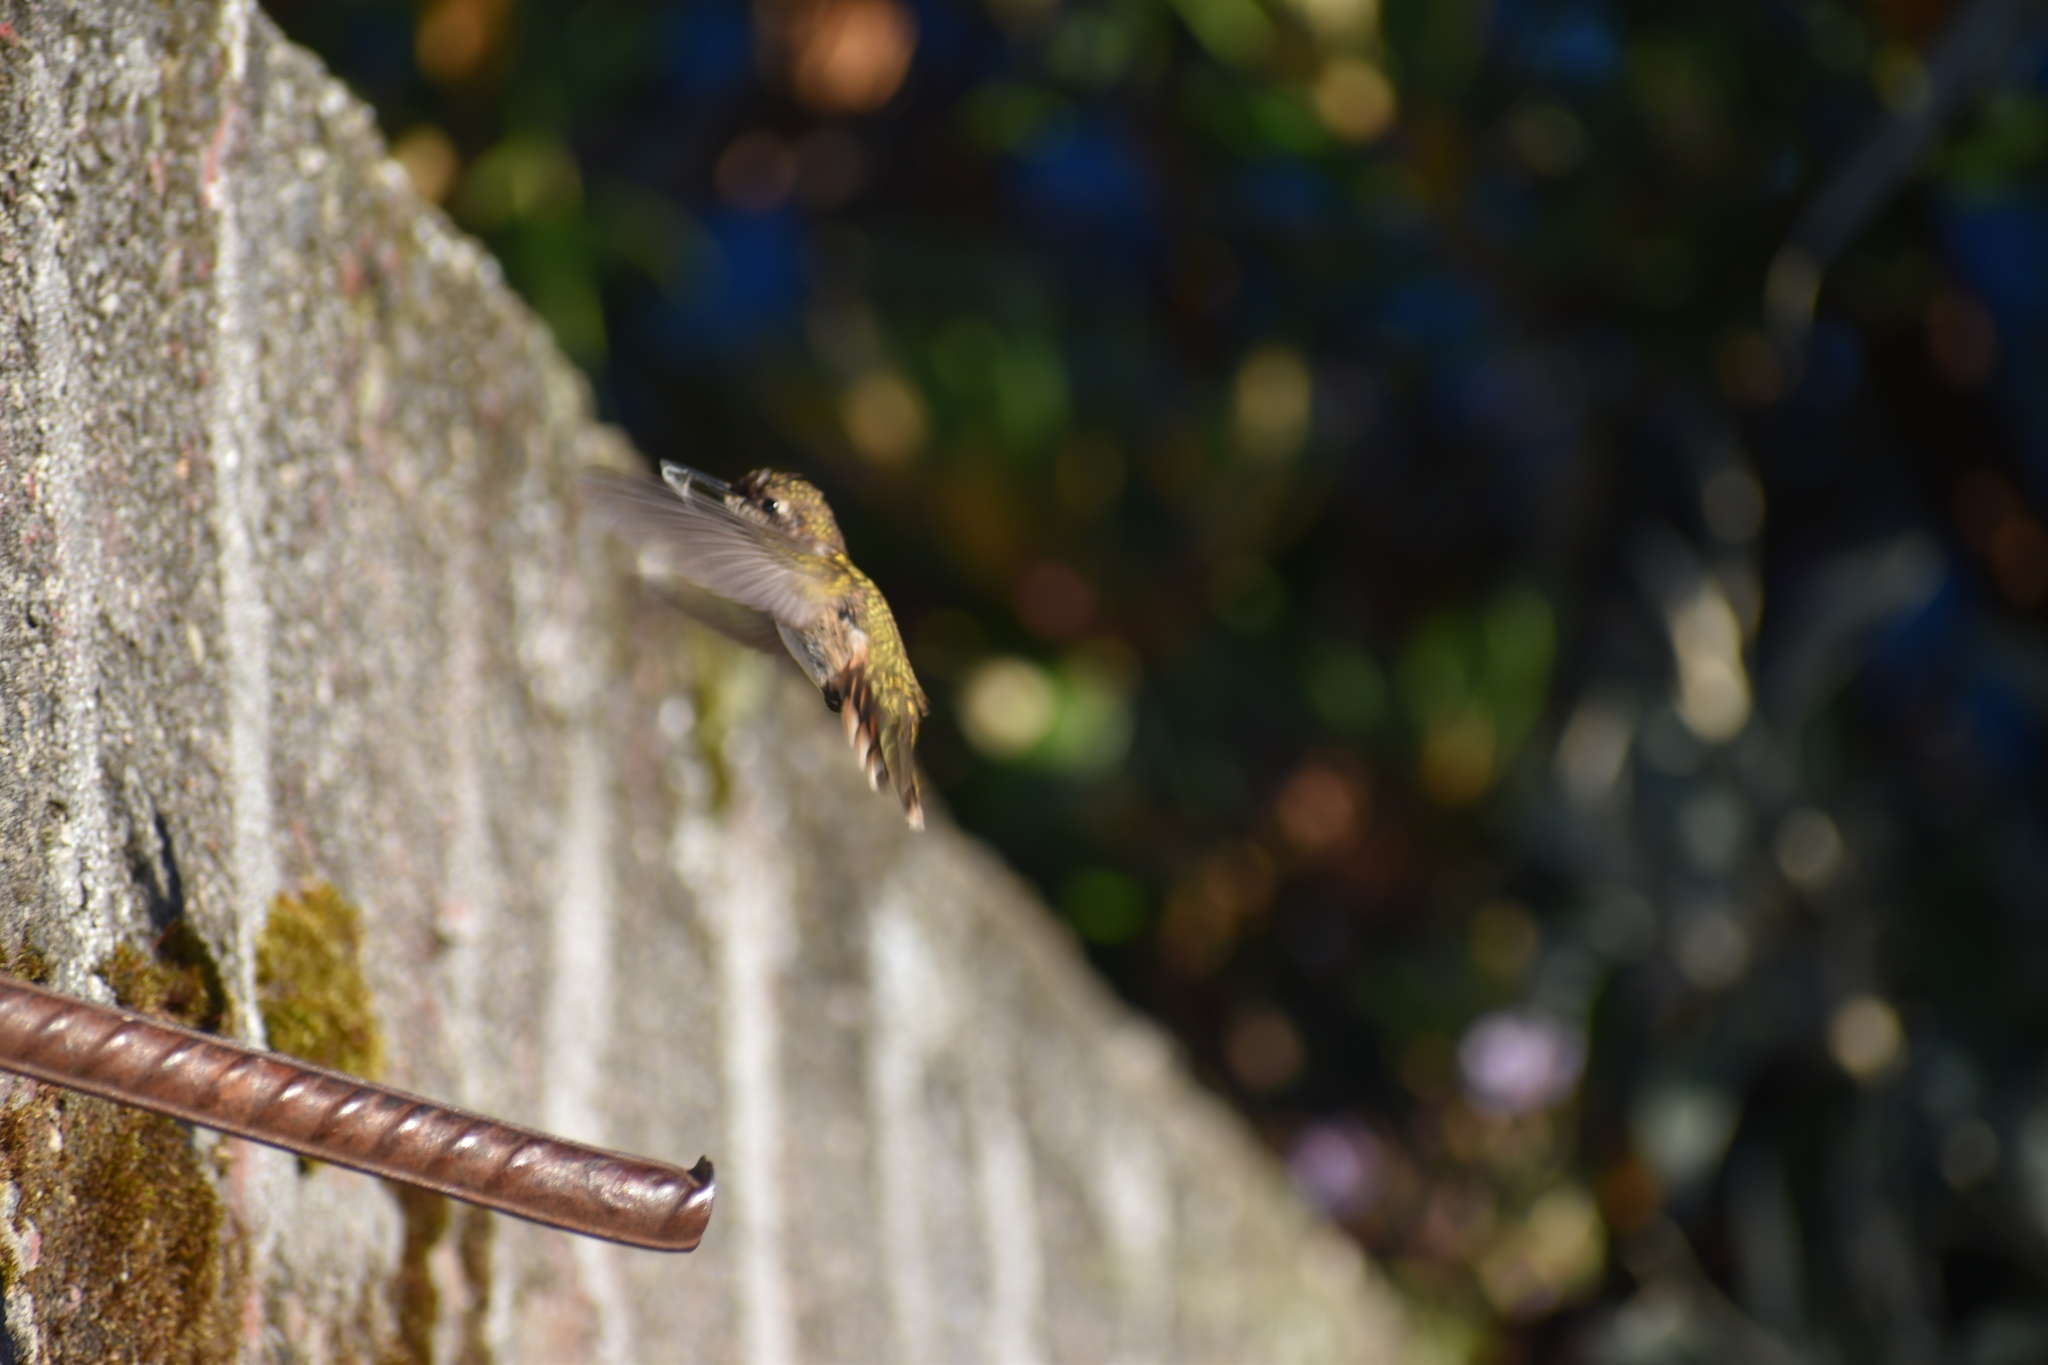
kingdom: Animalia
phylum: Chordata
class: Aves
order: Apodiformes
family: Trochilidae
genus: Selasphorus
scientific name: Selasphorus flammula
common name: Volcano hummingbird
